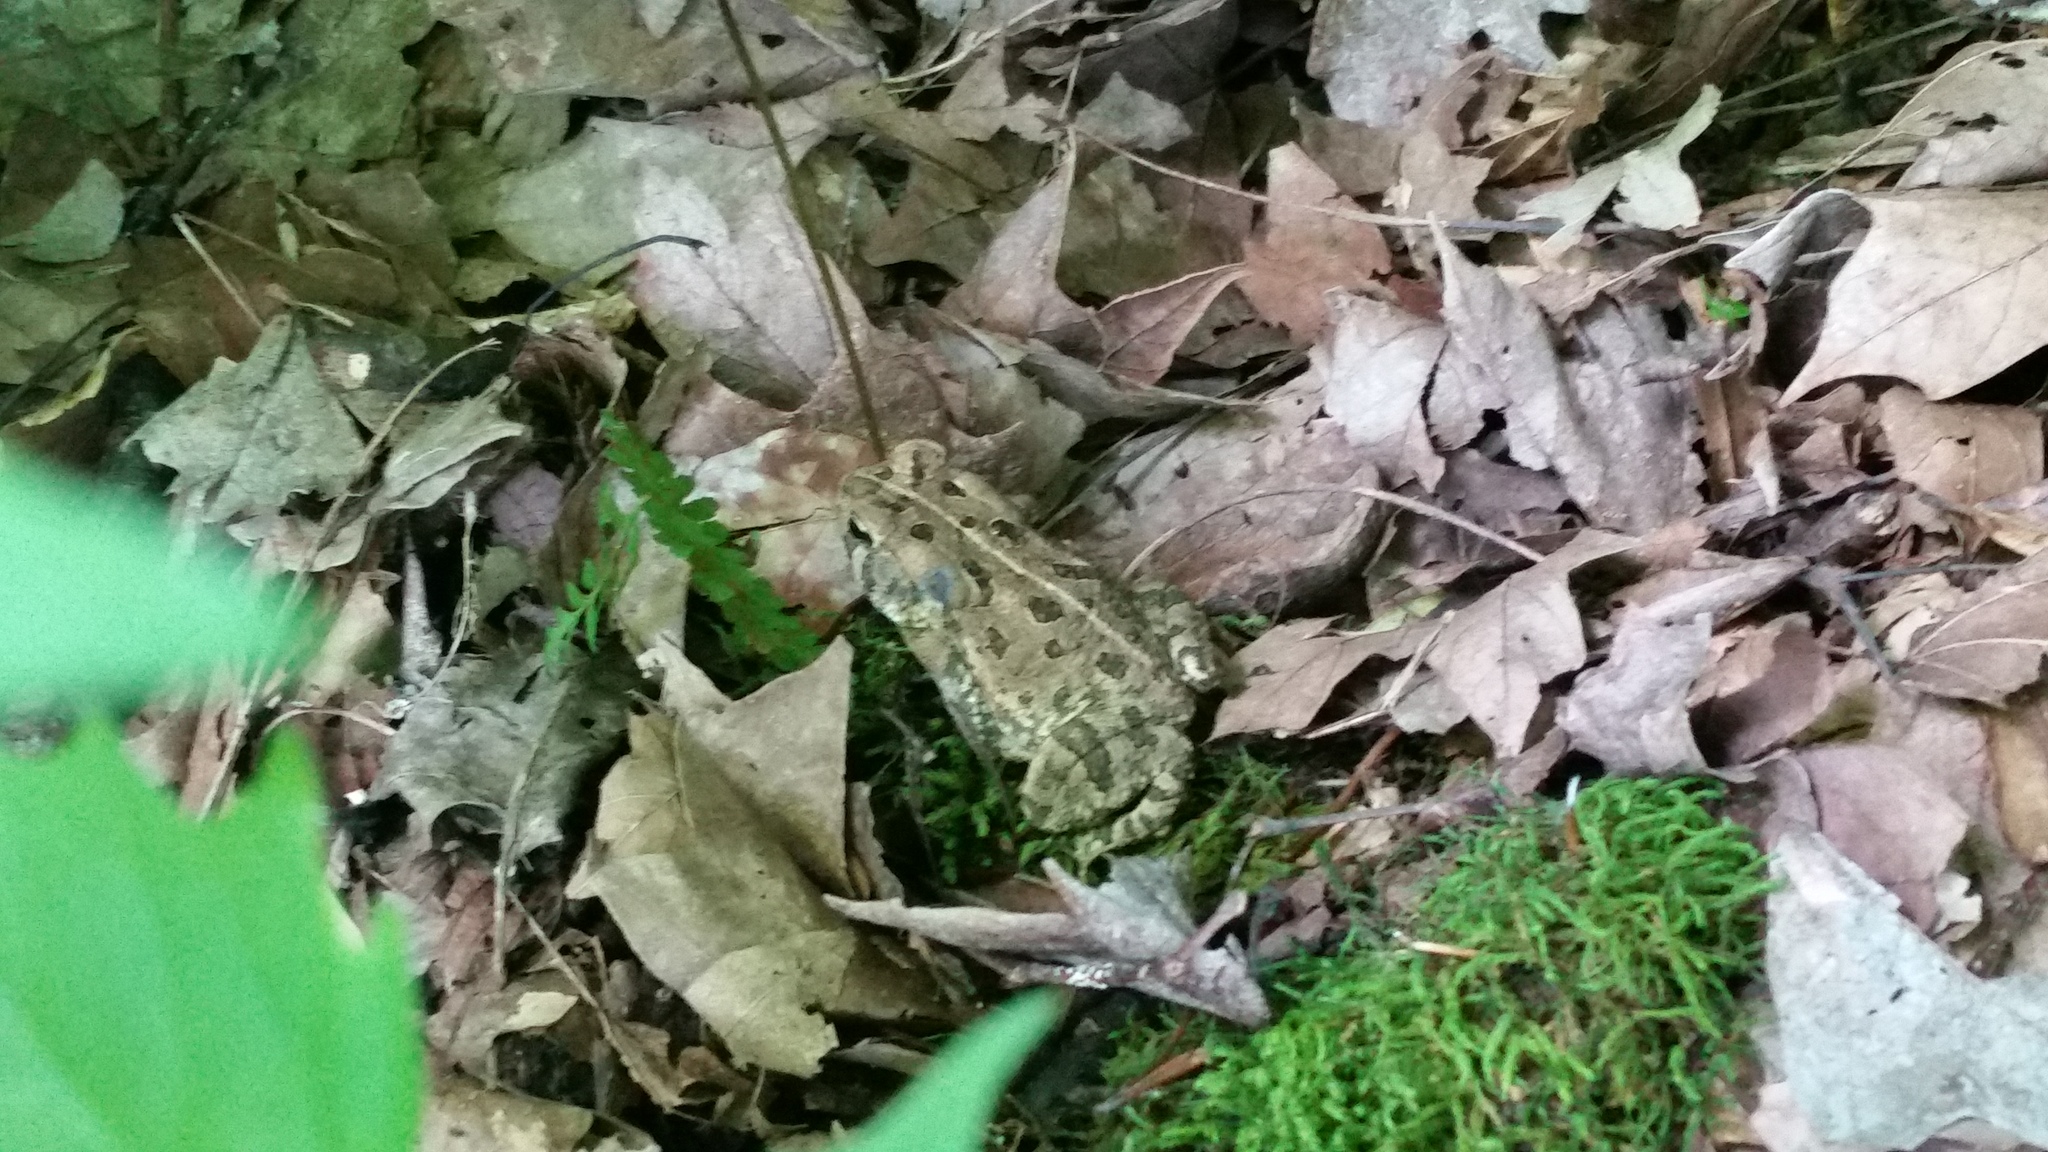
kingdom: Animalia
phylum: Chordata
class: Amphibia
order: Anura
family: Bufonidae
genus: Anaxyrus
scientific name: Anaxyrus fowleri
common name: Fowler's toad
